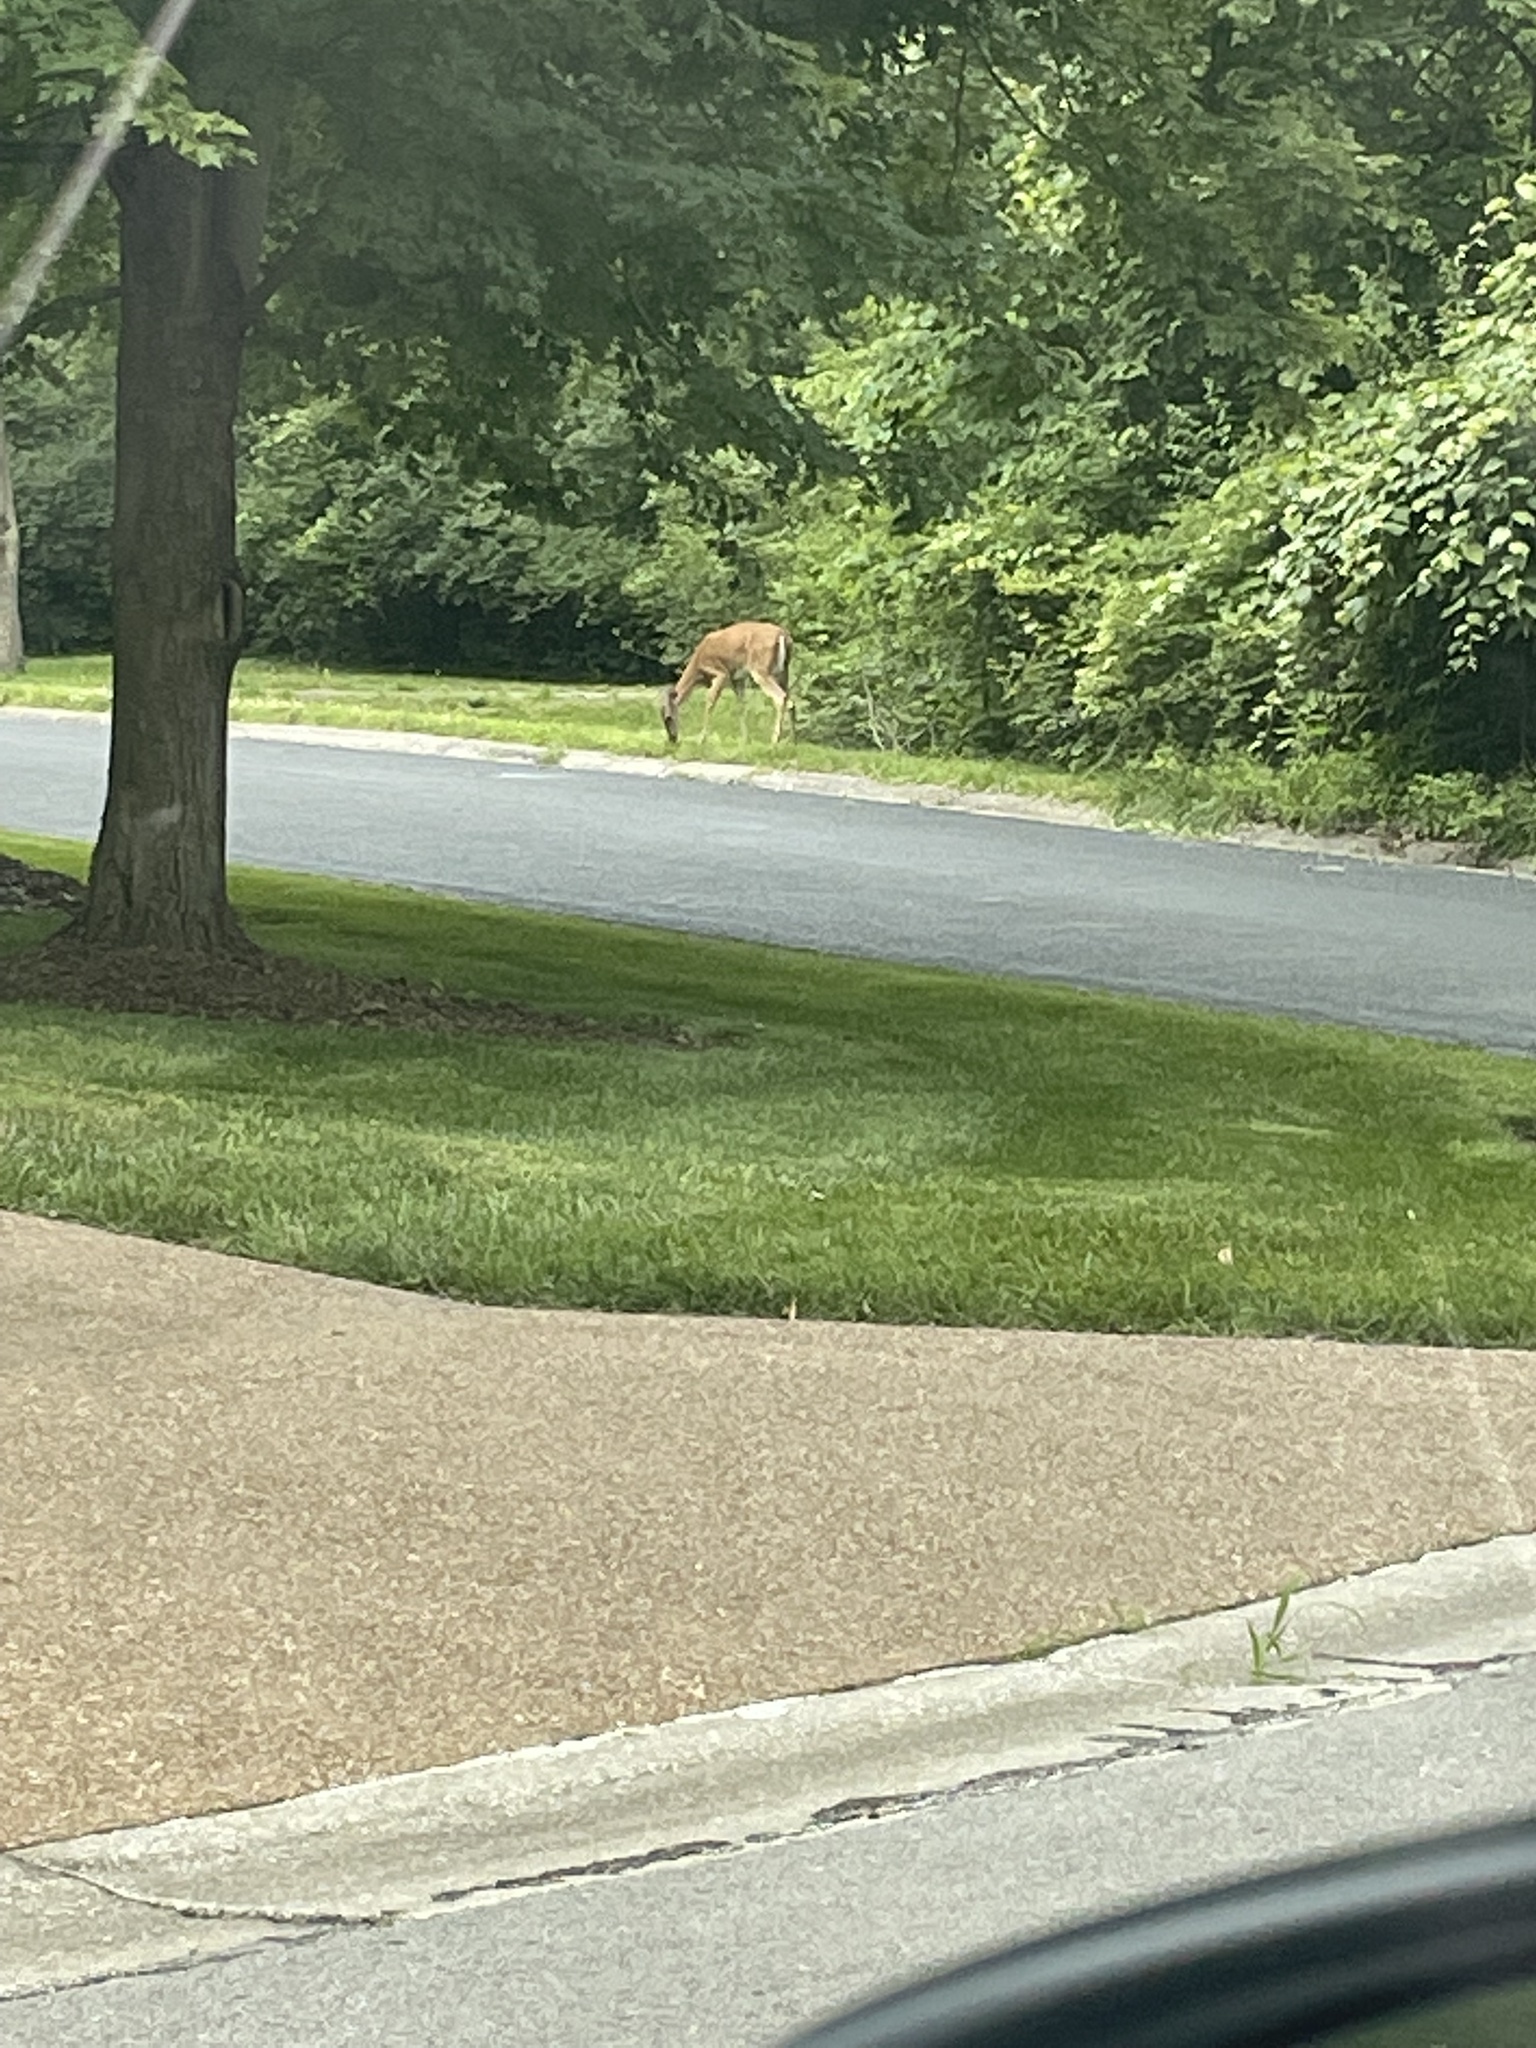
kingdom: Animalia
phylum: Chordata
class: Mammalia
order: Artiodactyla
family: Cervidae
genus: Odocoileus
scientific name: Odocoileus virginianus
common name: White-tailed deer
